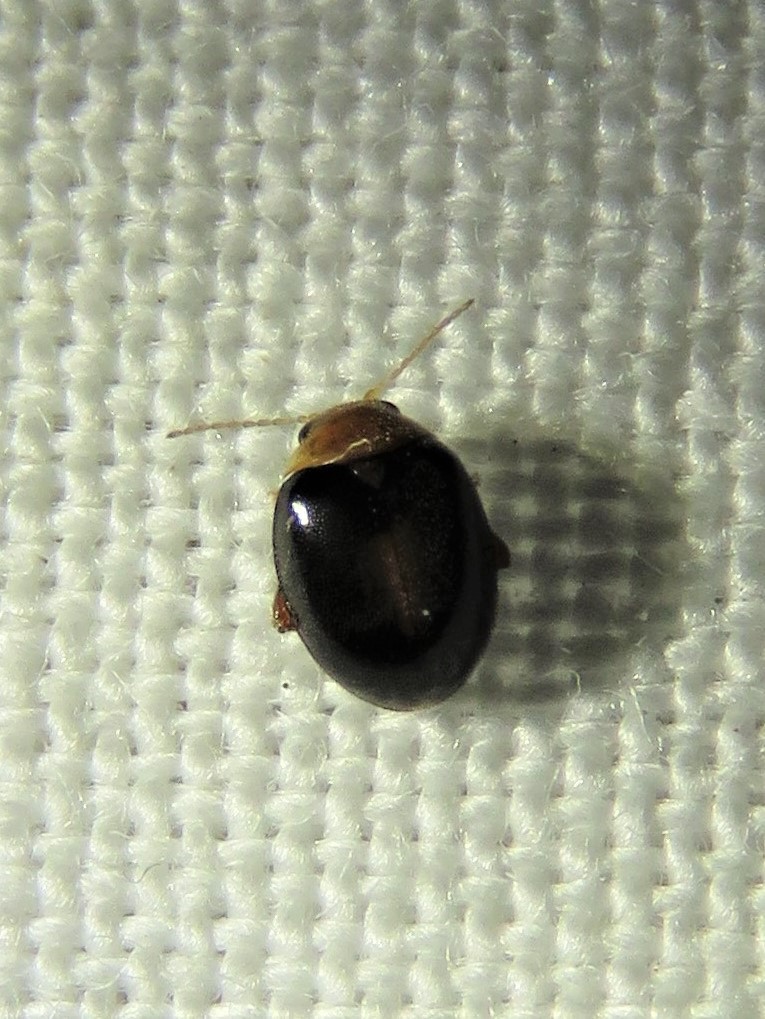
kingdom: Animalia
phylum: Arthropoda
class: Insecta
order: Coleoptera
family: Scirtidae
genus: Scirtes
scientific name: Scirtes orbiculatus
